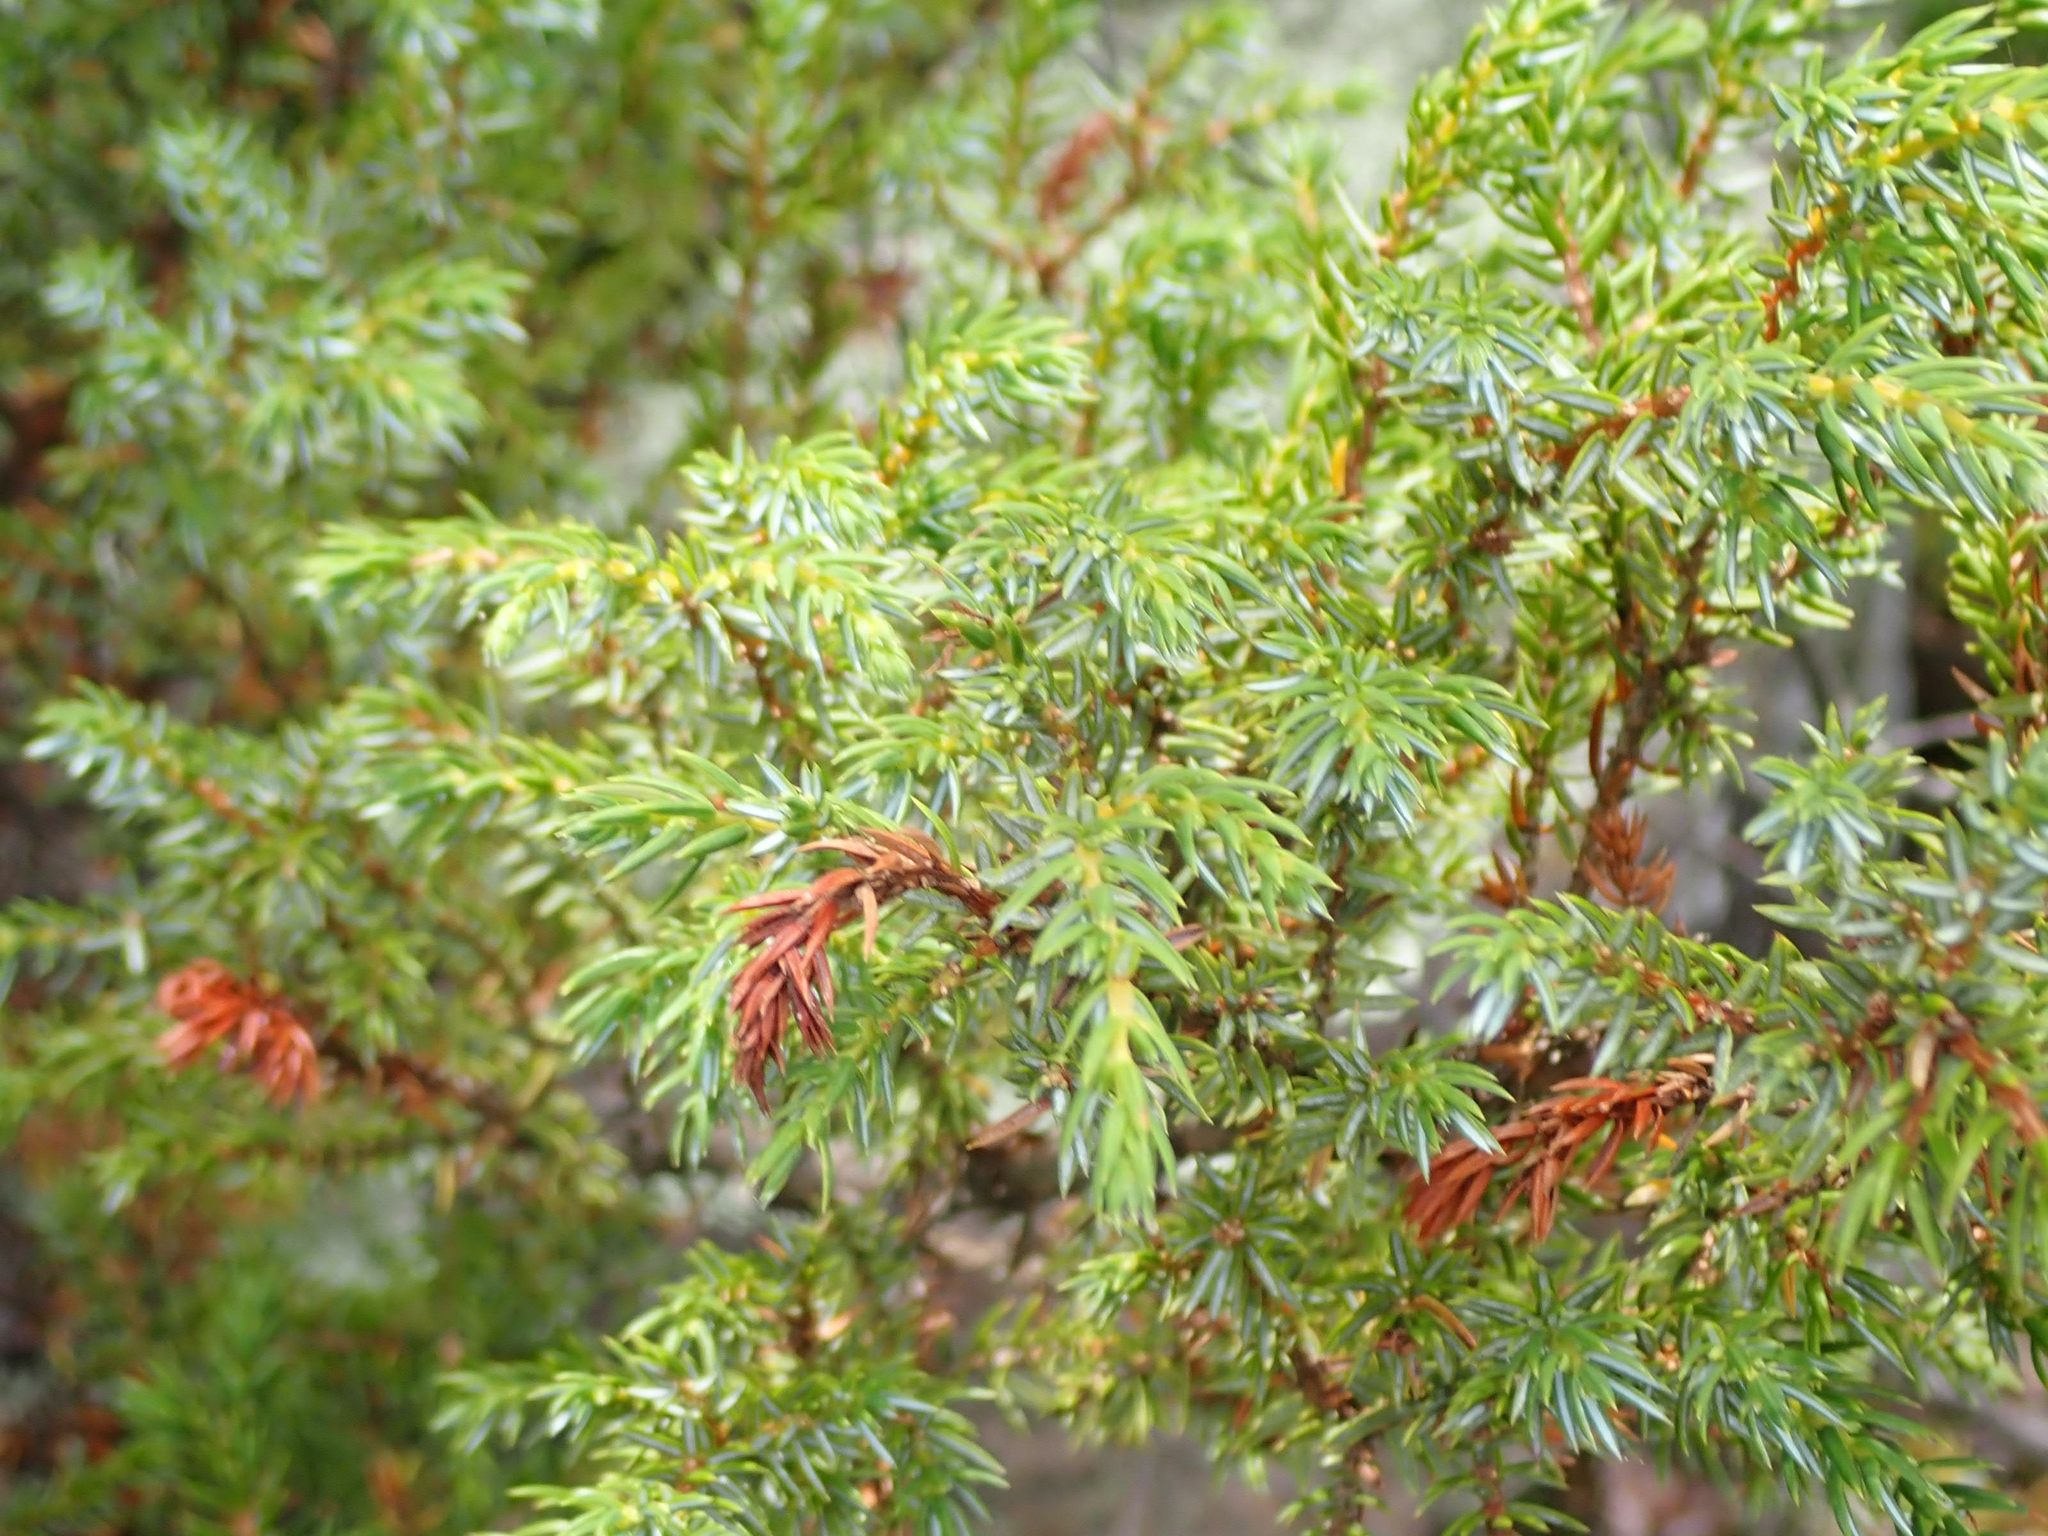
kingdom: Plantae
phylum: Tracheophyta
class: Pinopsida
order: Pinales
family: Cupressaceae
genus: Juniperus
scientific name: Juniperus communis
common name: Common juniper
